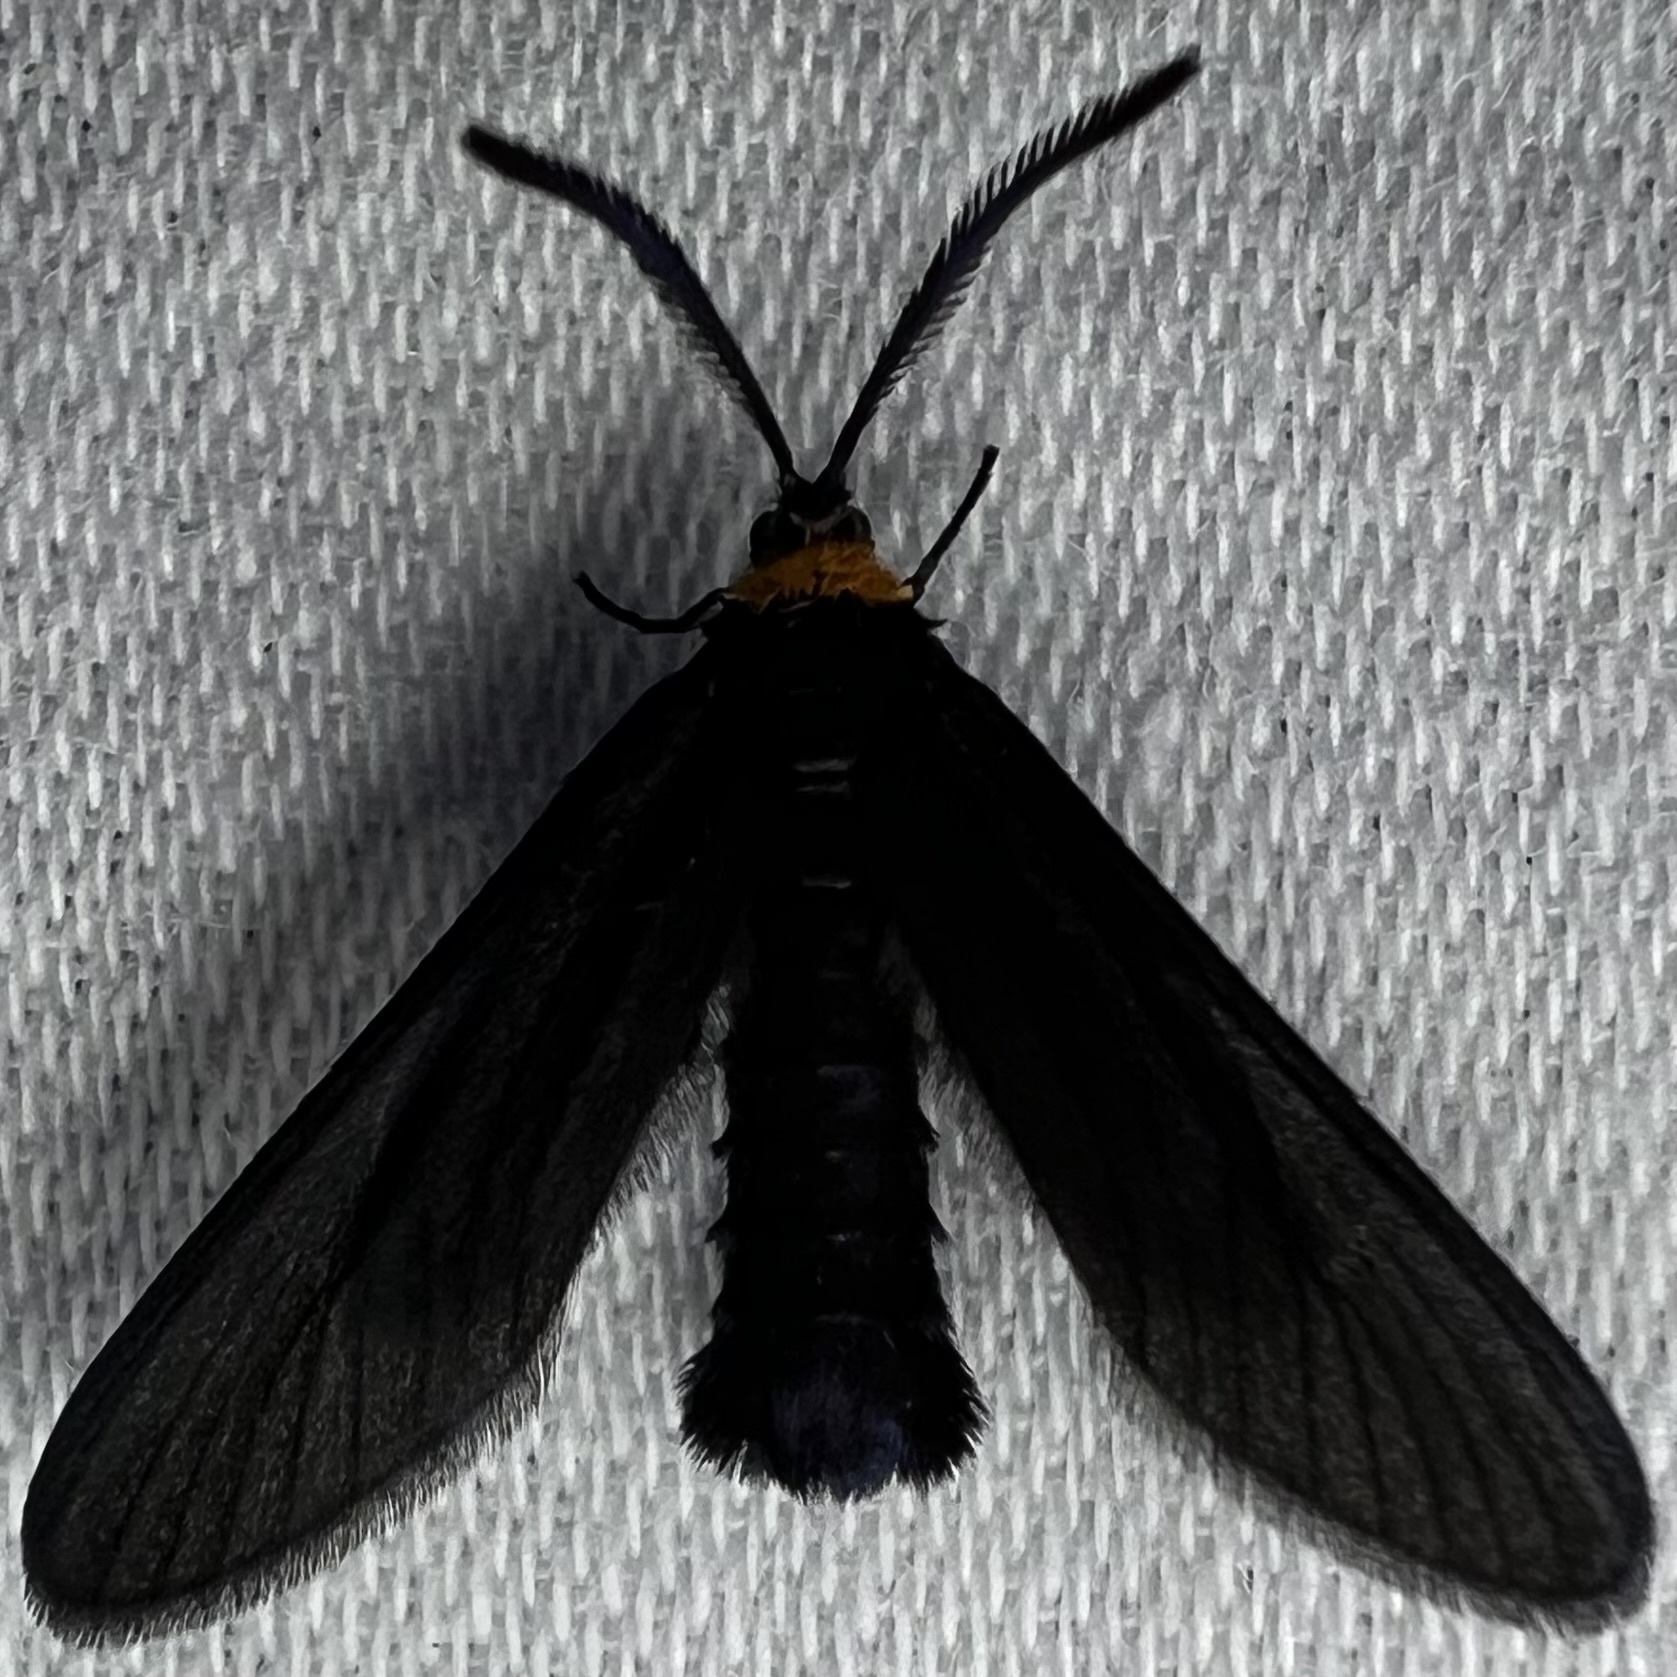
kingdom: Animalia
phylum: Arthropoda
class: Insecta
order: Lepidoptera
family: Zygaenidae
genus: Harrisina
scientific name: Harrisina americana
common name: Grapeleaf skeletonizer moth
